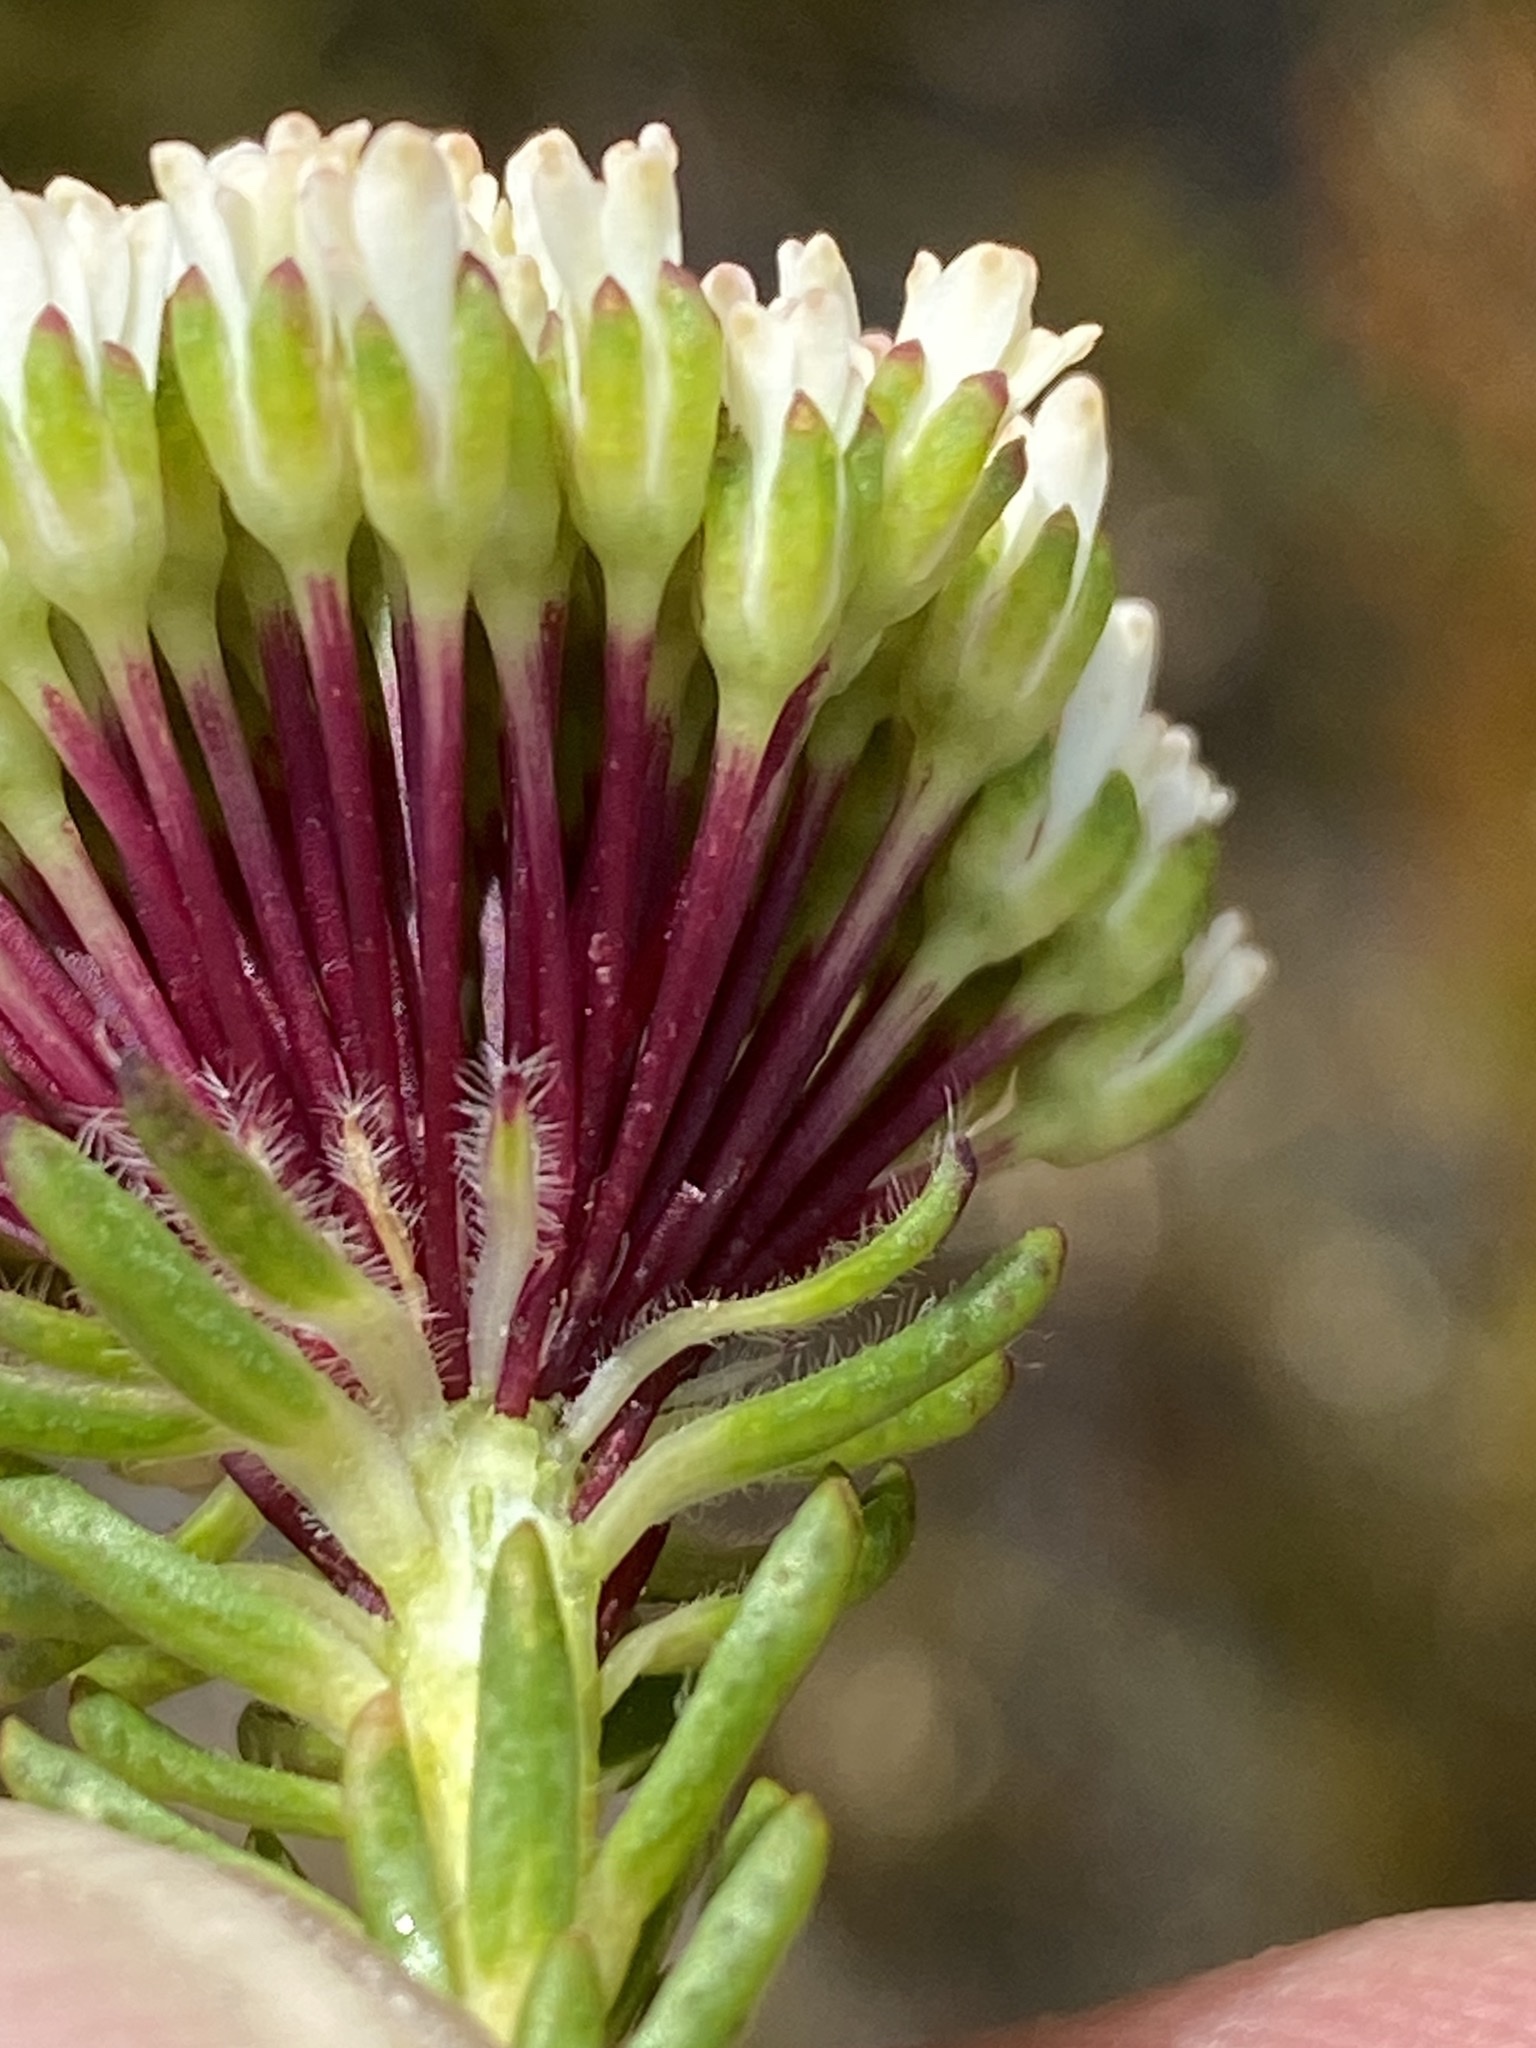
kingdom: Plantae
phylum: Tracheophyta
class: Magnoliopsida
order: Sapindales
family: Rutaceae
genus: Agathosma
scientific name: Agathosma bifida
